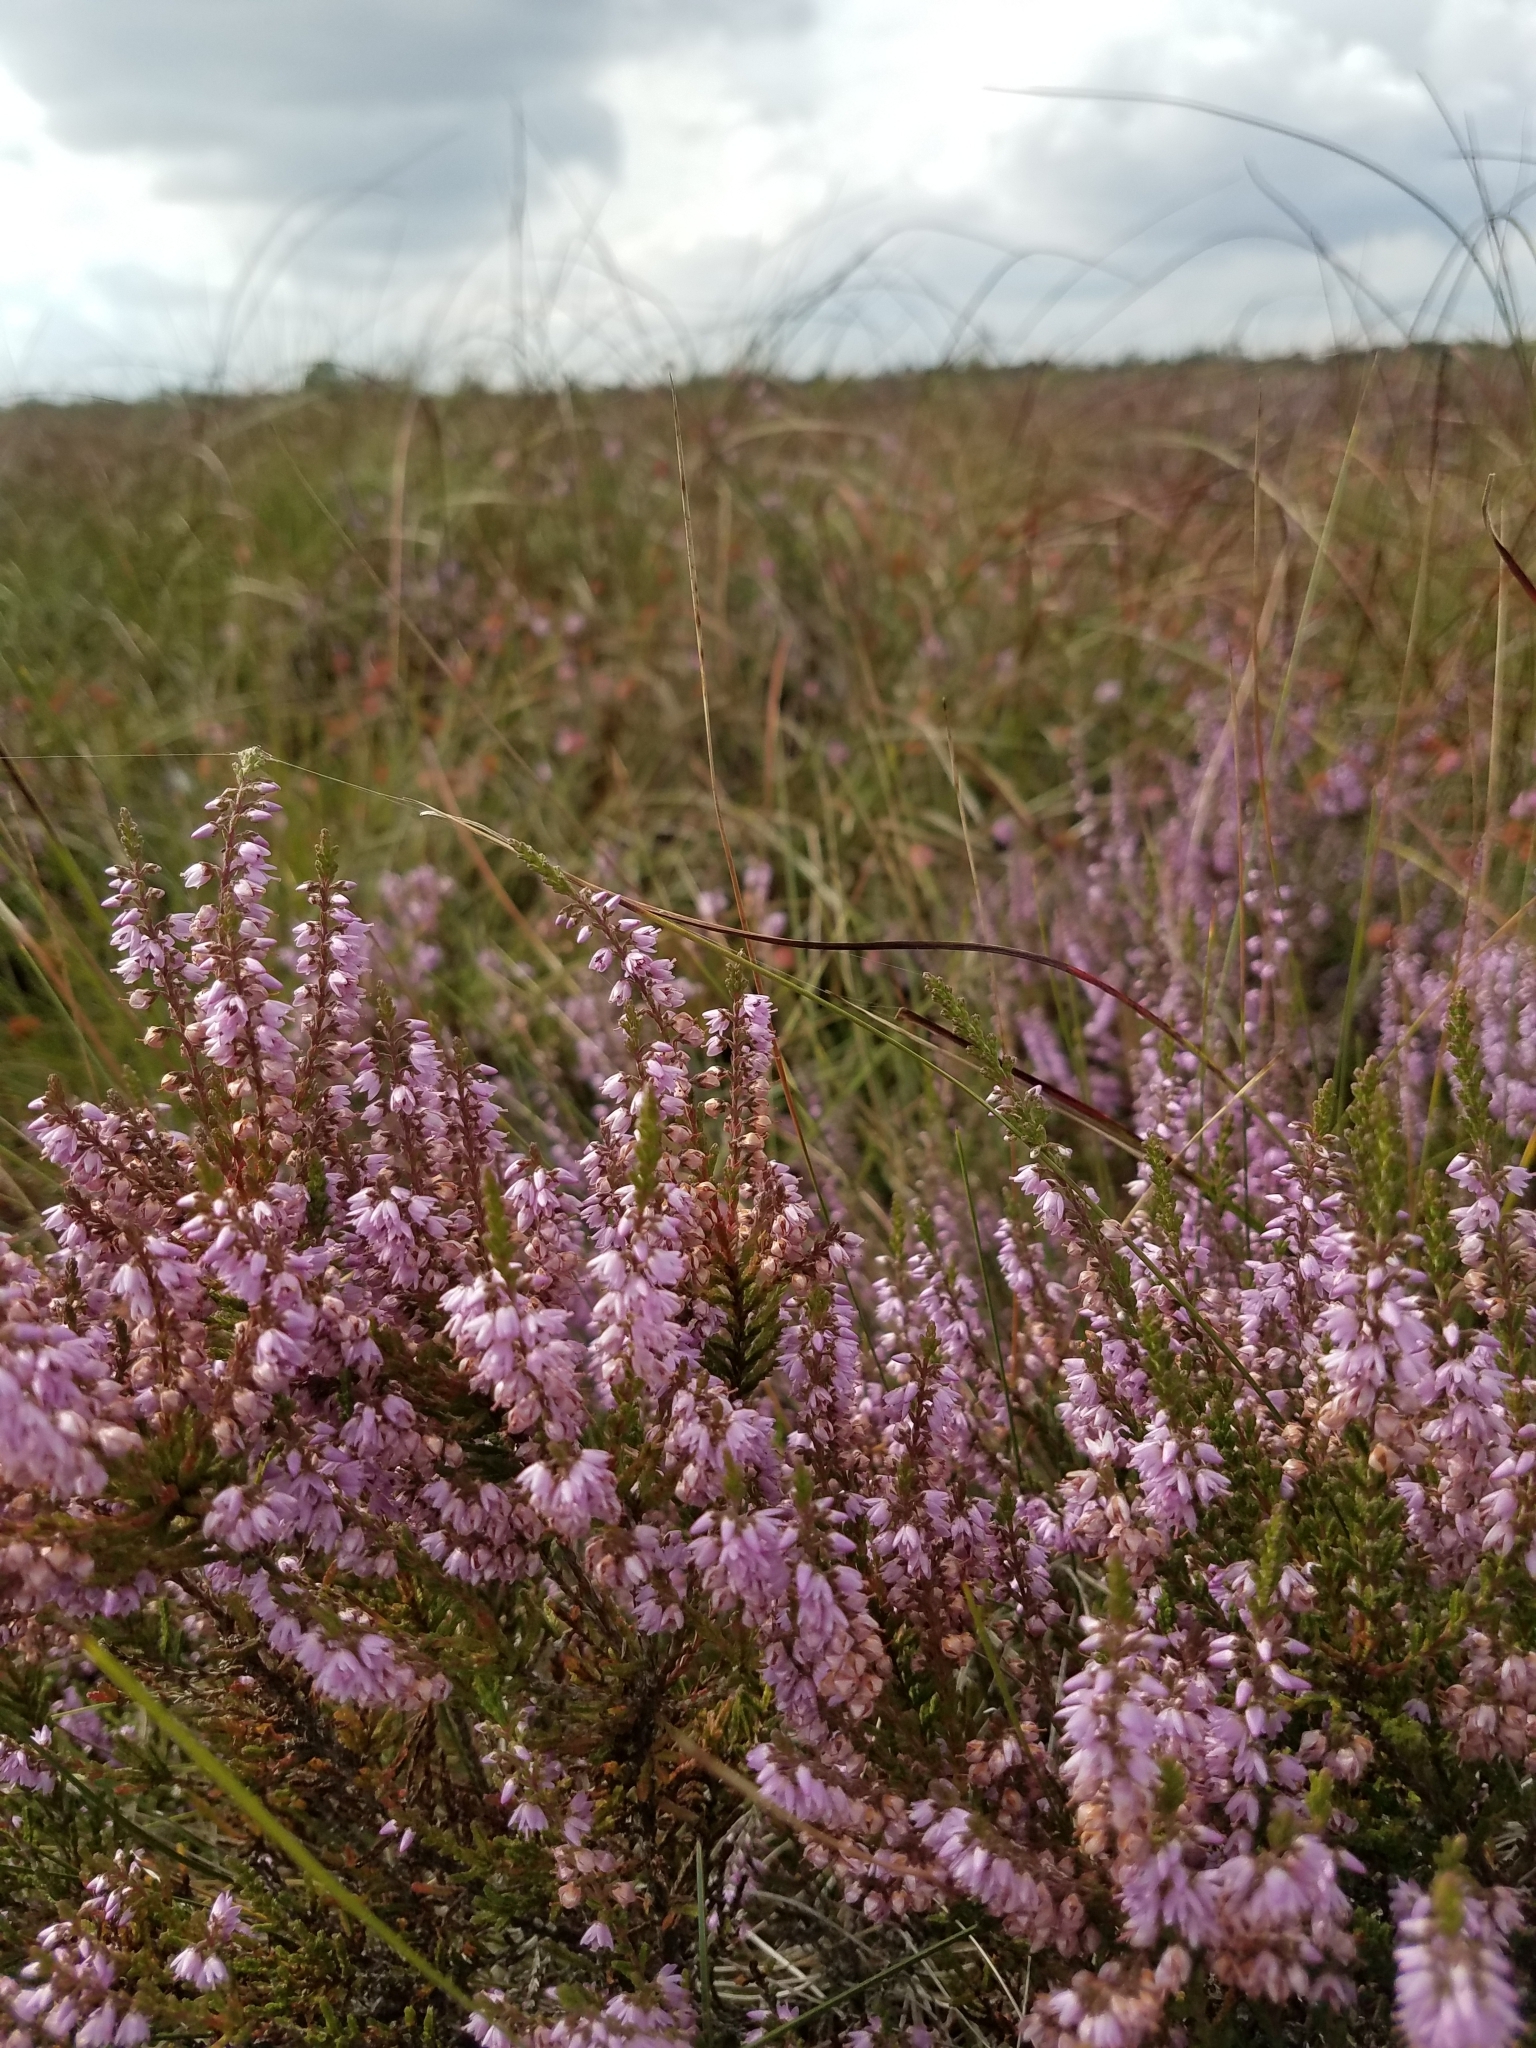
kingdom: Plantae
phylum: Tracheophyta
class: Magnoliopsida
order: Ericales
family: Ericaceae
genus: Calluna
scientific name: Calluna vulgaris
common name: Heather
